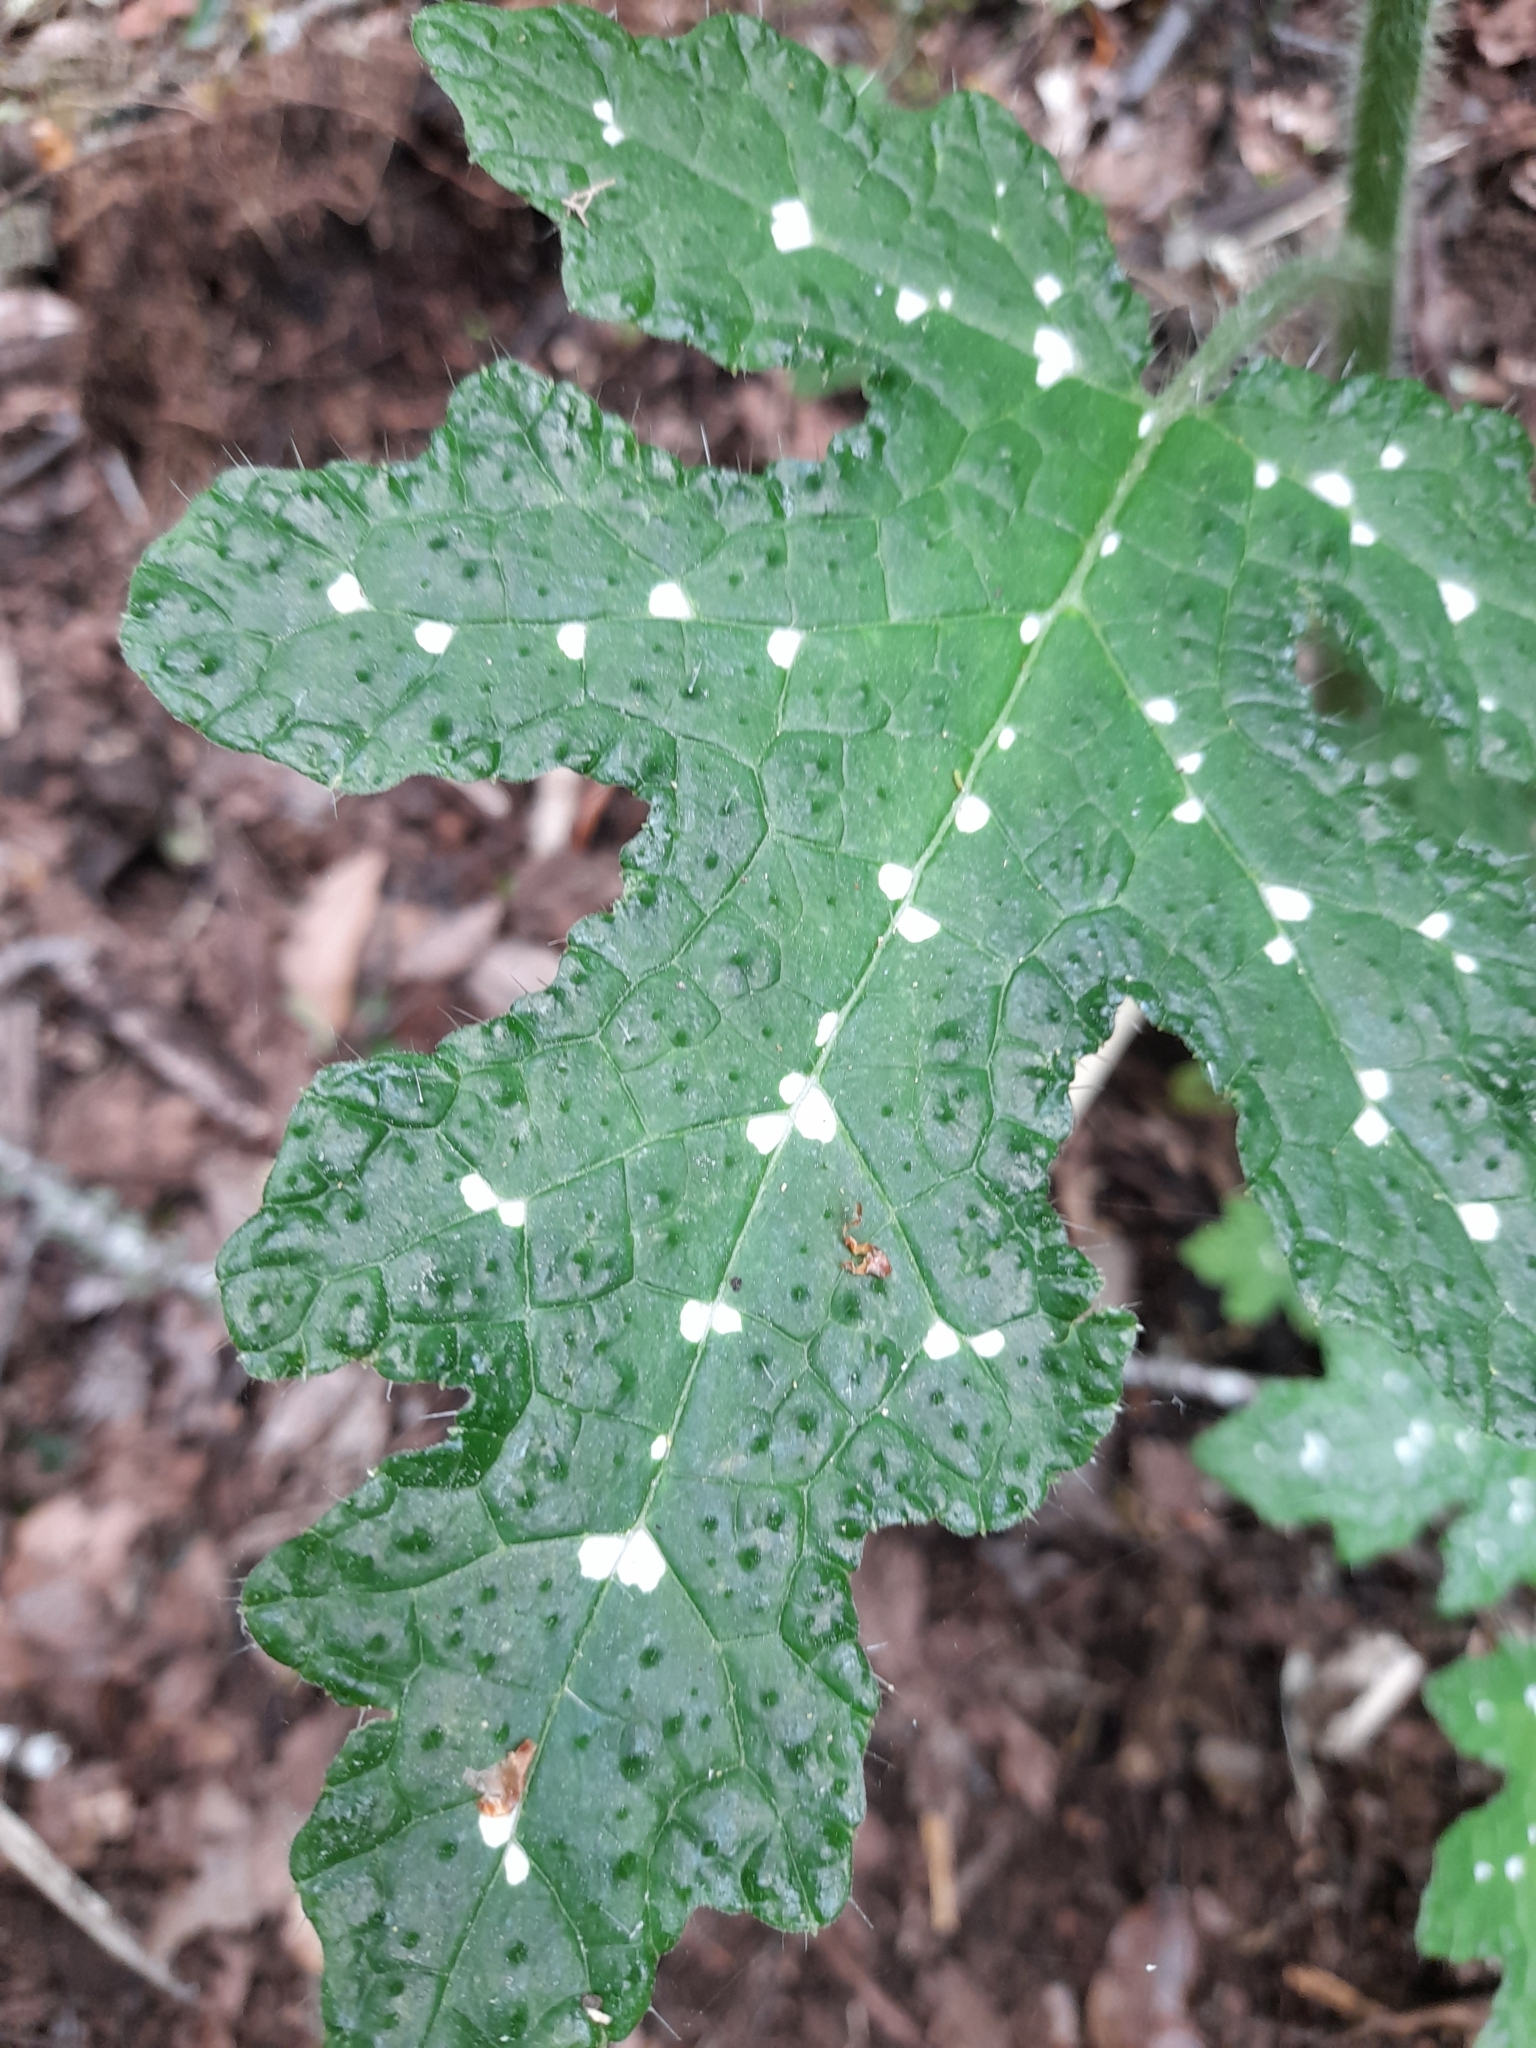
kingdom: Plantae
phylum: Tracheophyta
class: Magnoliopsida
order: Cornales
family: Loasaceae
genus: Loasa
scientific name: Loasa acanthifolia
